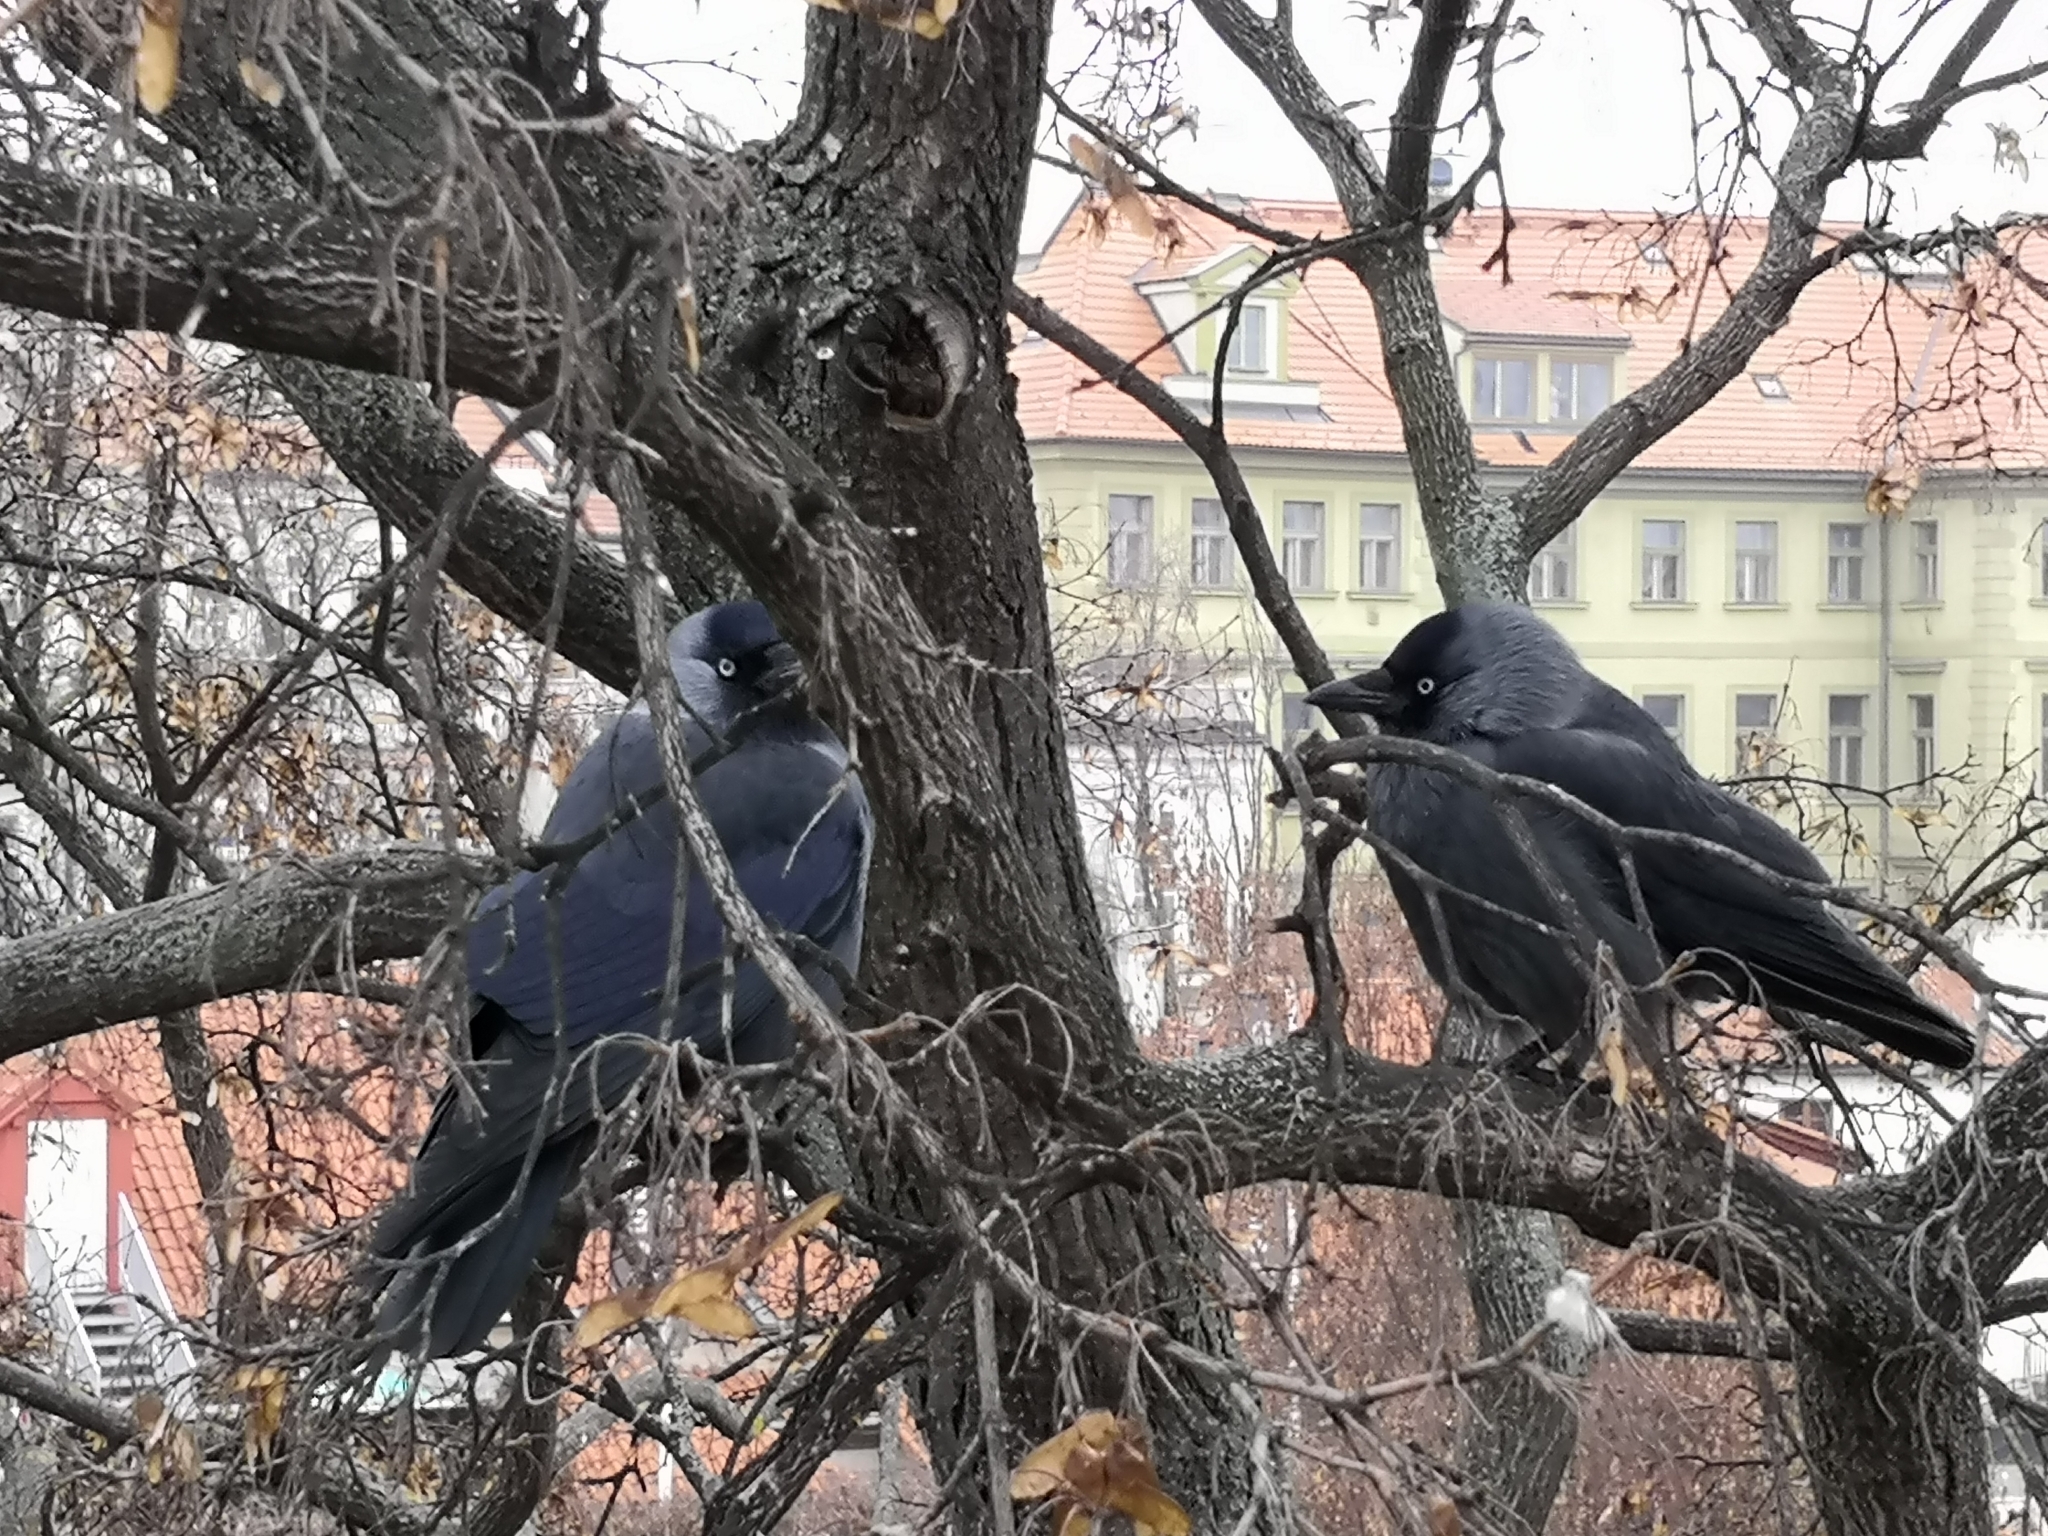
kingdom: Animalia
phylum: Chordata
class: Aves
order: Passeriformes
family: Corvidae
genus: Coloeus
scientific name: Coloeus monedula
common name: Western jackdaw
